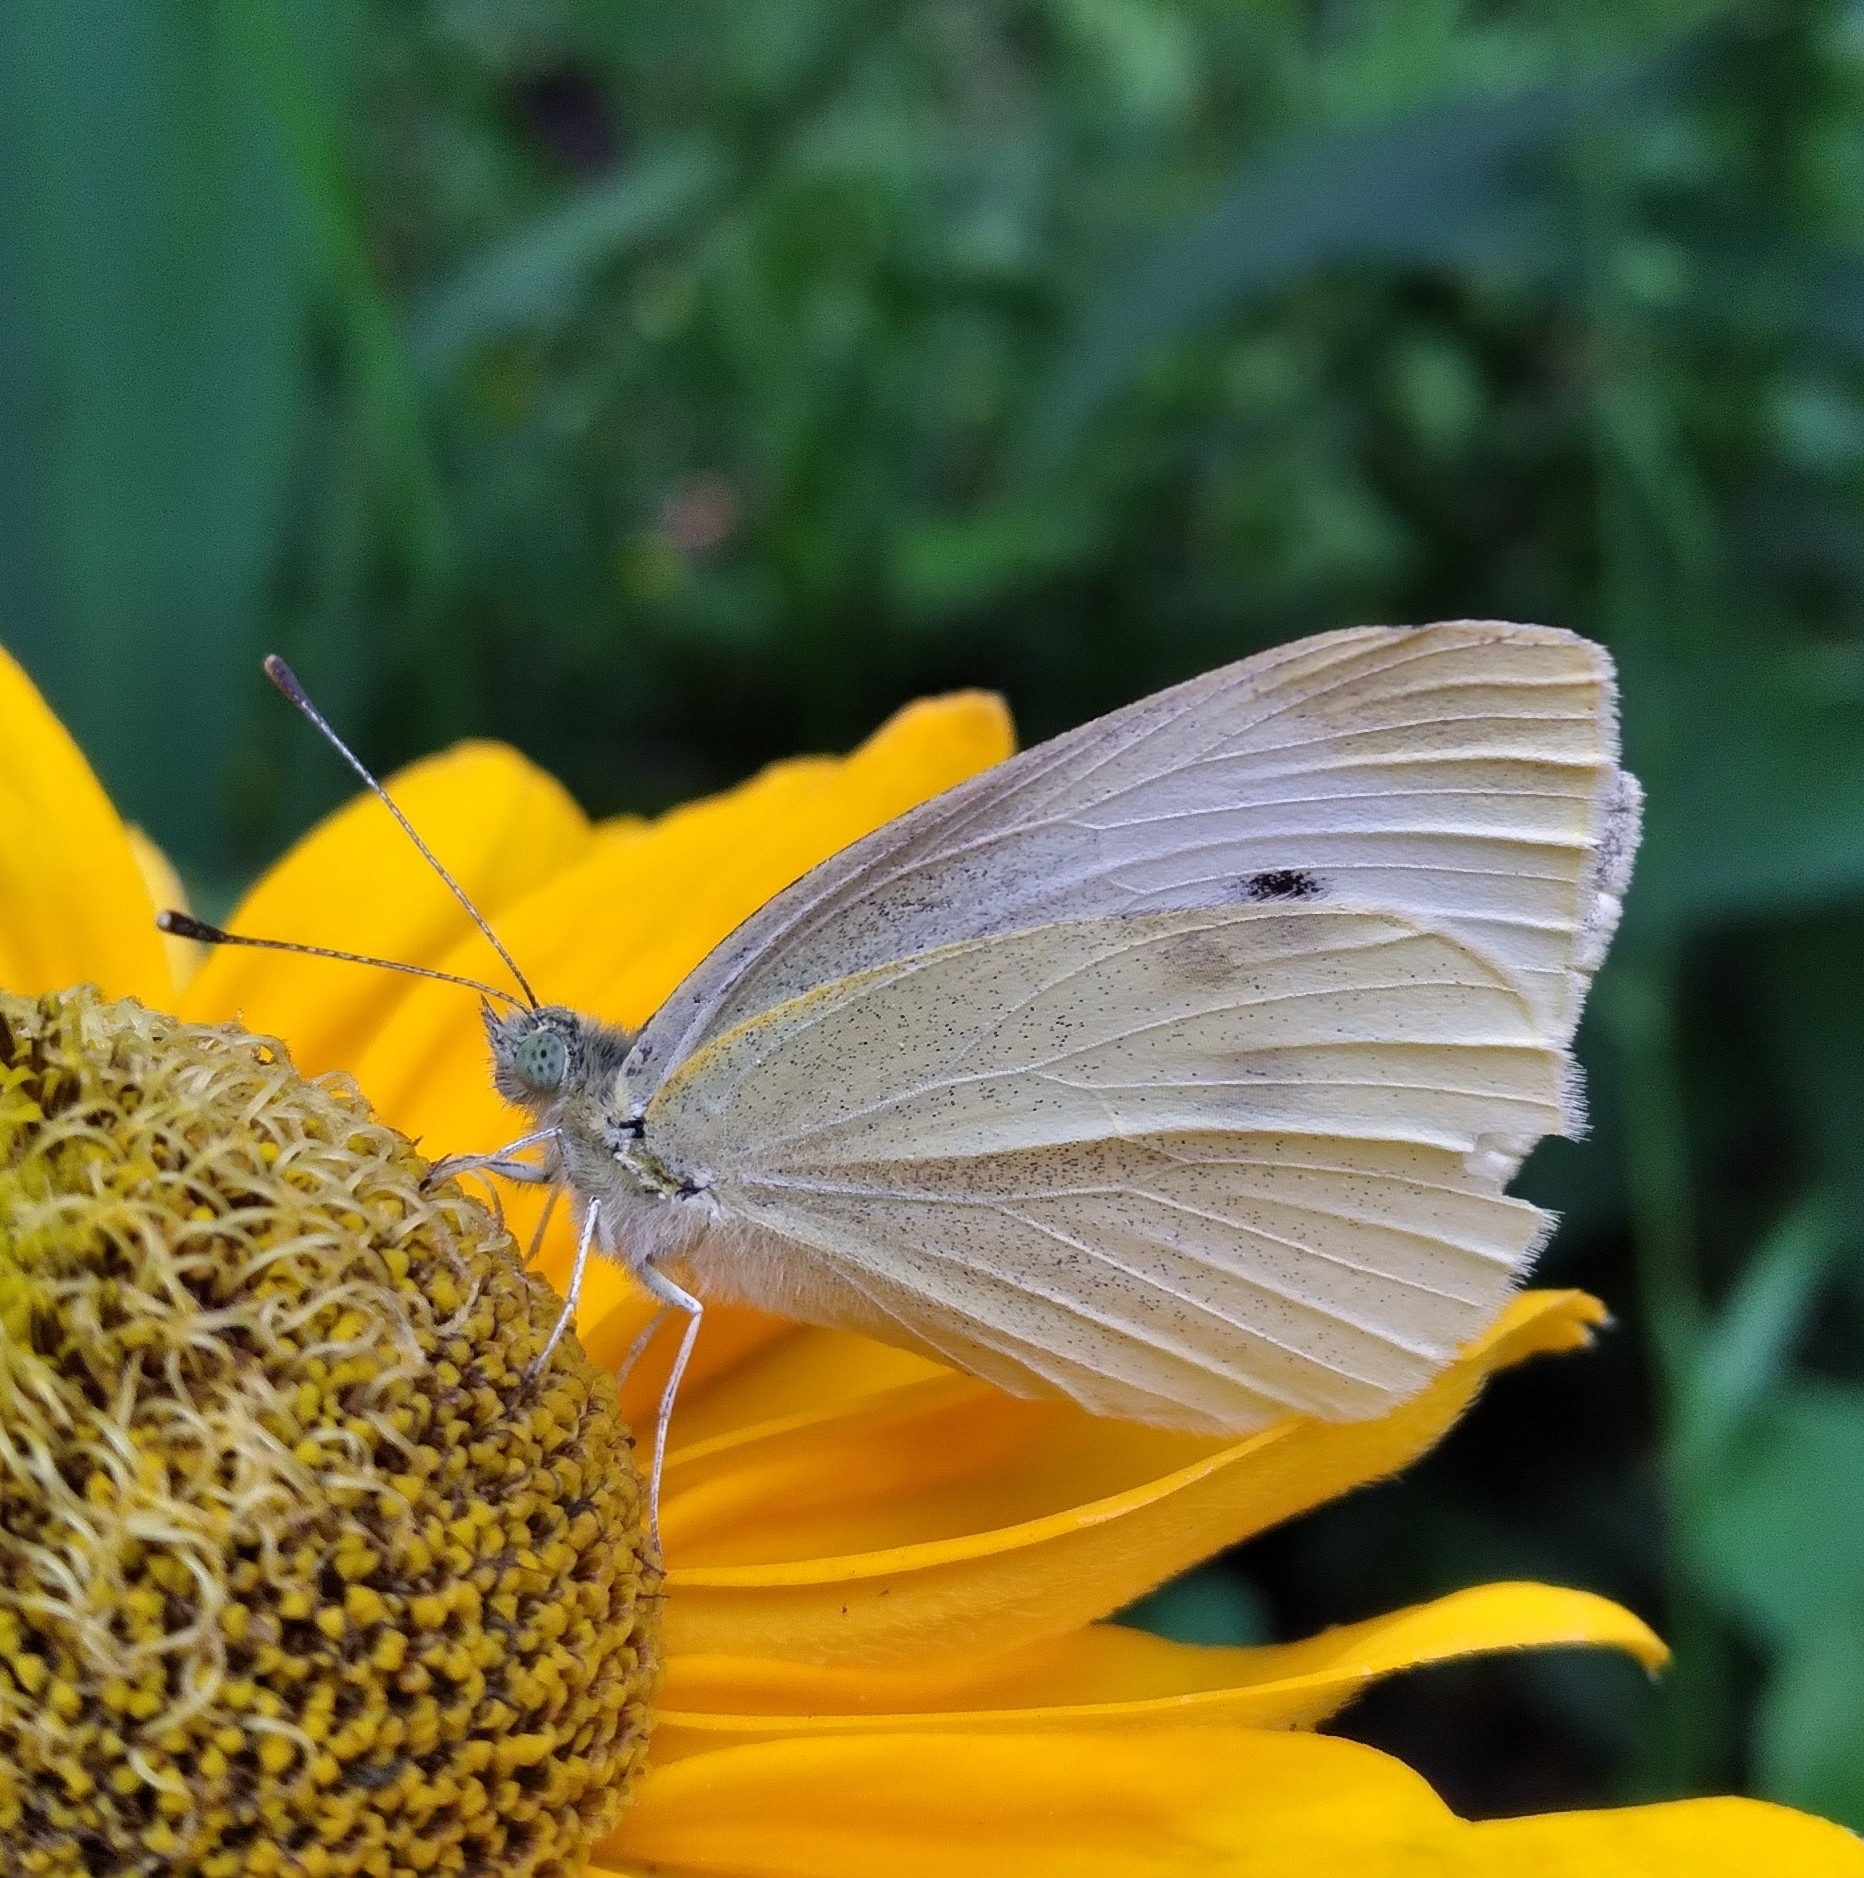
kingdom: Animalia
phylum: Arthropoda
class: Insecta
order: Lepidoptera
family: Pieridae
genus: Pieris
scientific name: Pieris rapae
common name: Small white
